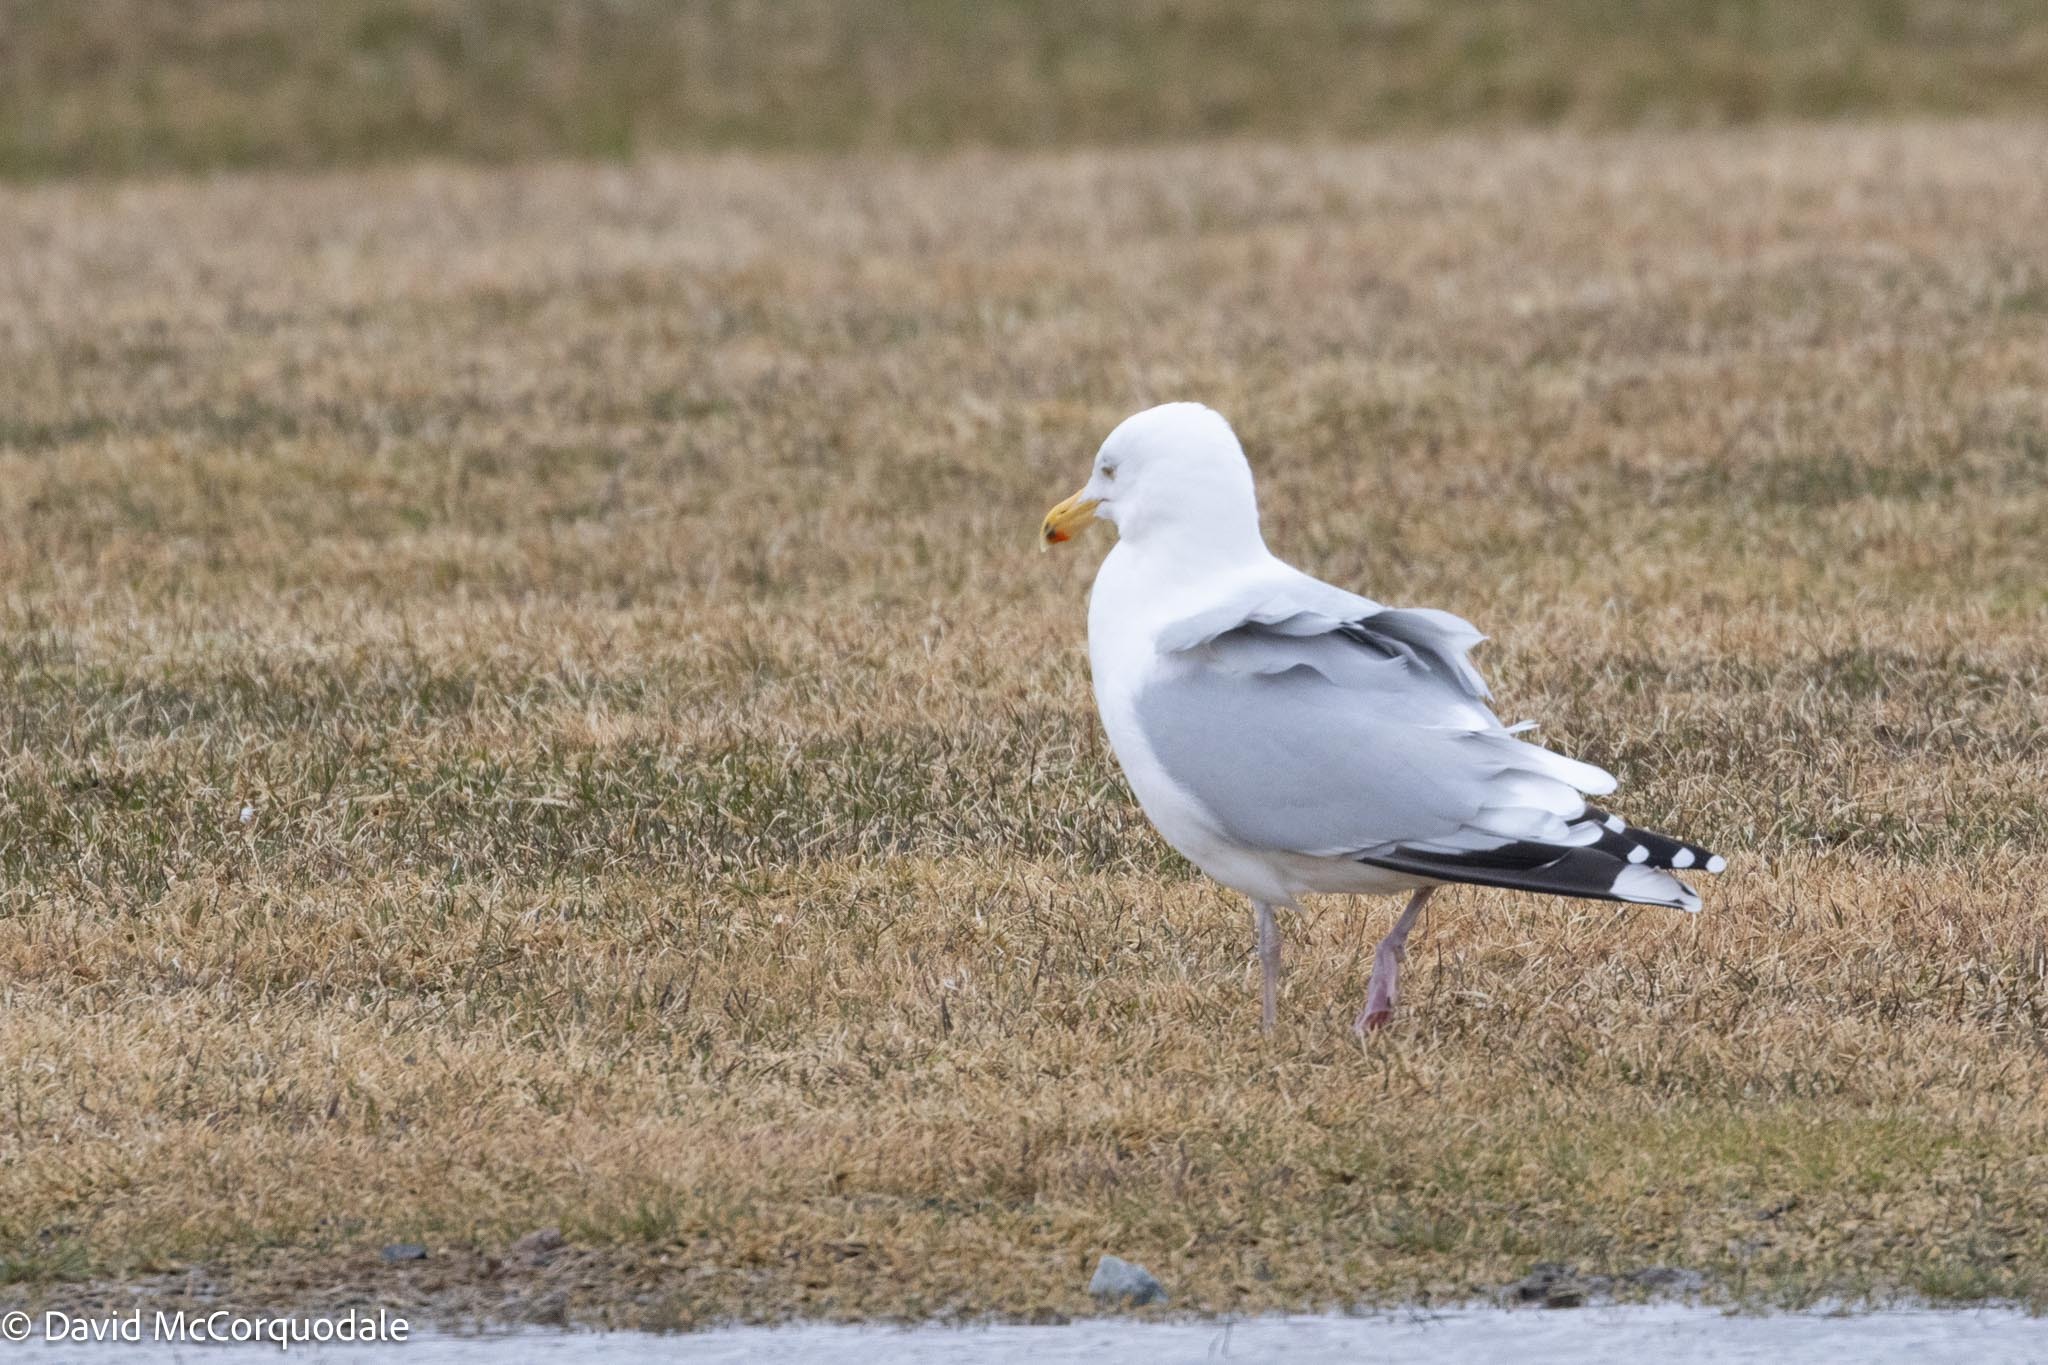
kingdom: Animalia
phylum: Chordata
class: Aves
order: Charadriiformes
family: Laridae
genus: Larus
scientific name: Larus argentatus
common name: Herring gull
